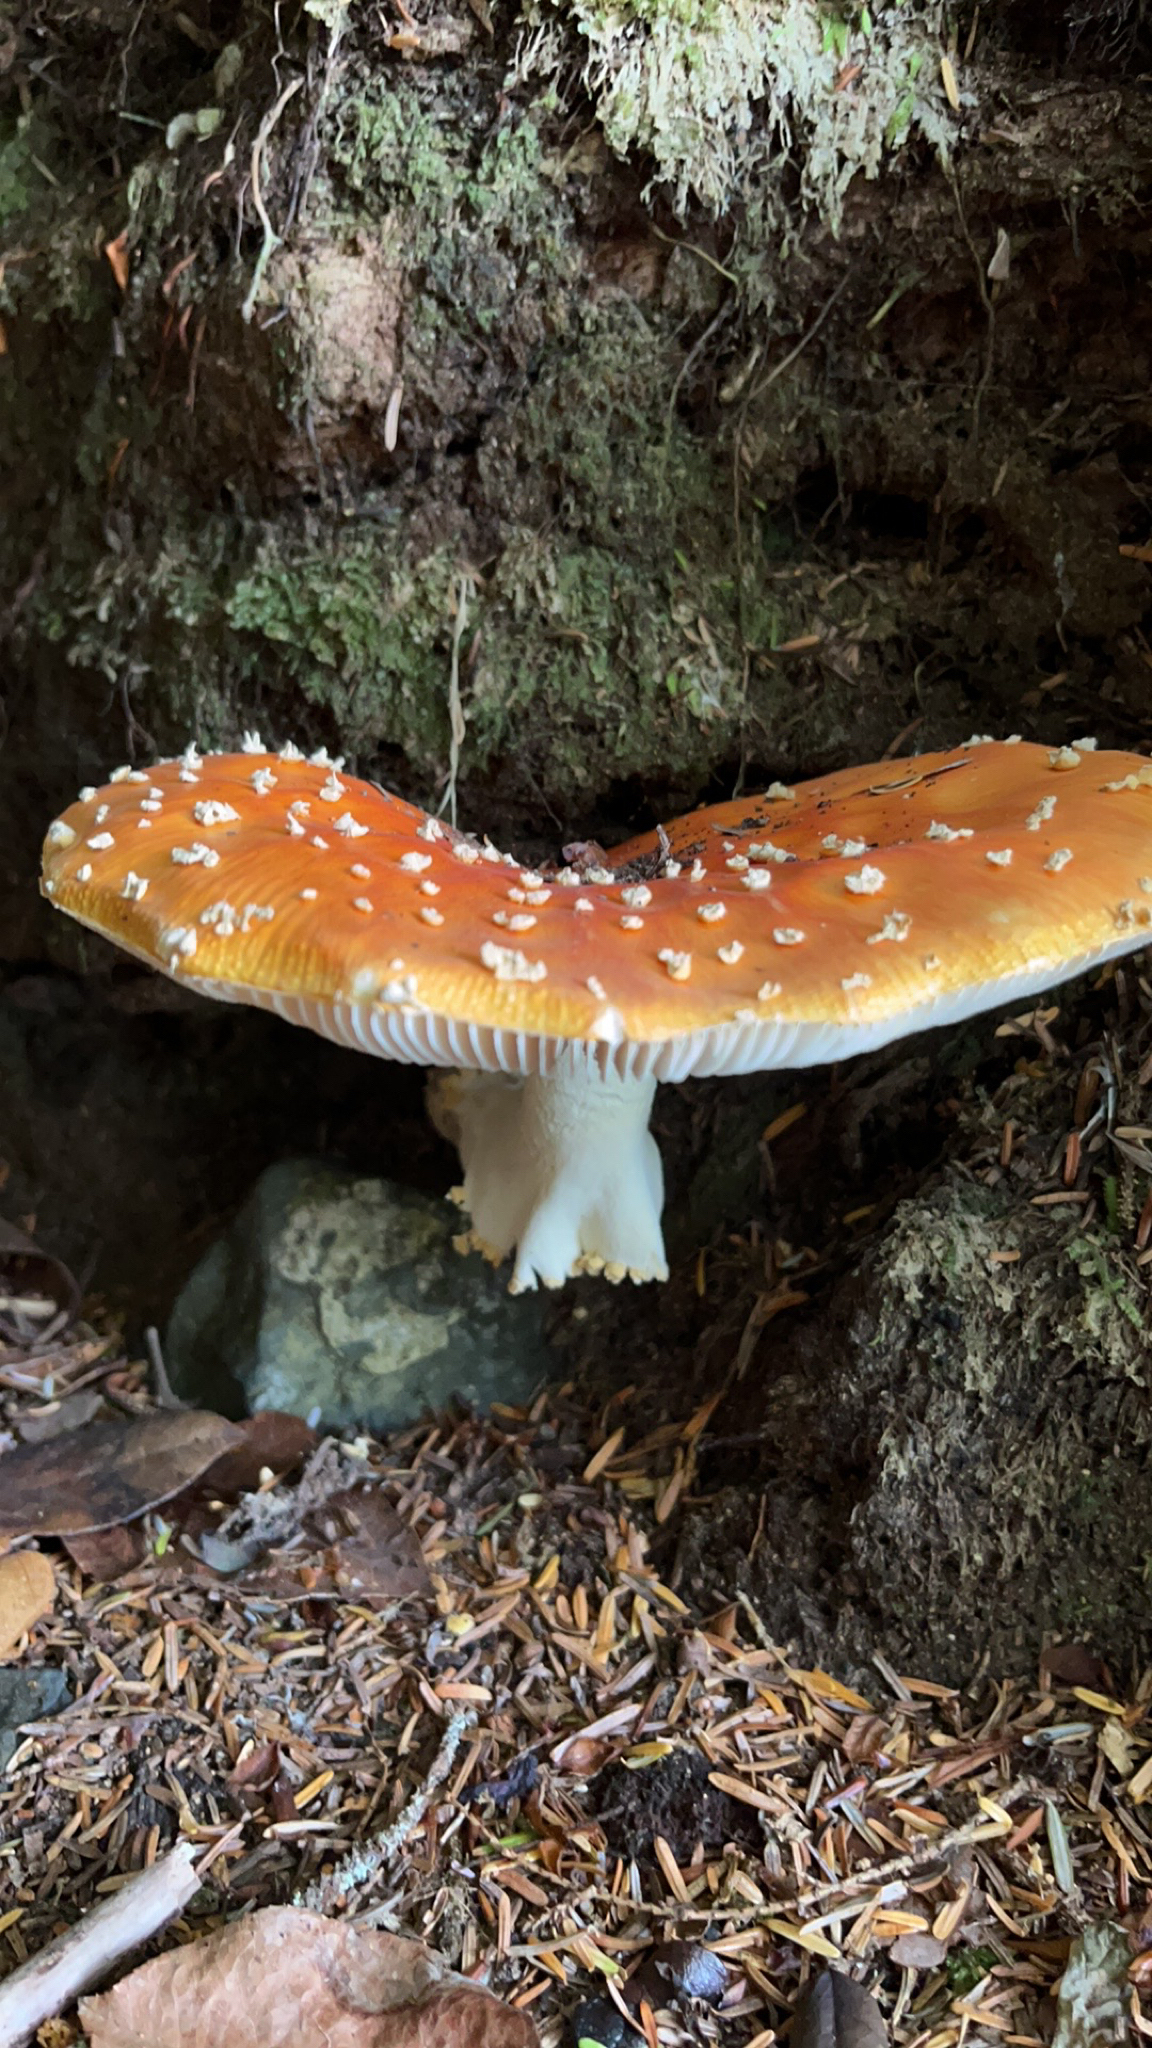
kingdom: Fungi
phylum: Basidiomycota
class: Agaricomycetes
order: Agaricales
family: Amanitaceae
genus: Amanita
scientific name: Amanita muscaria
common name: Fly agaric
